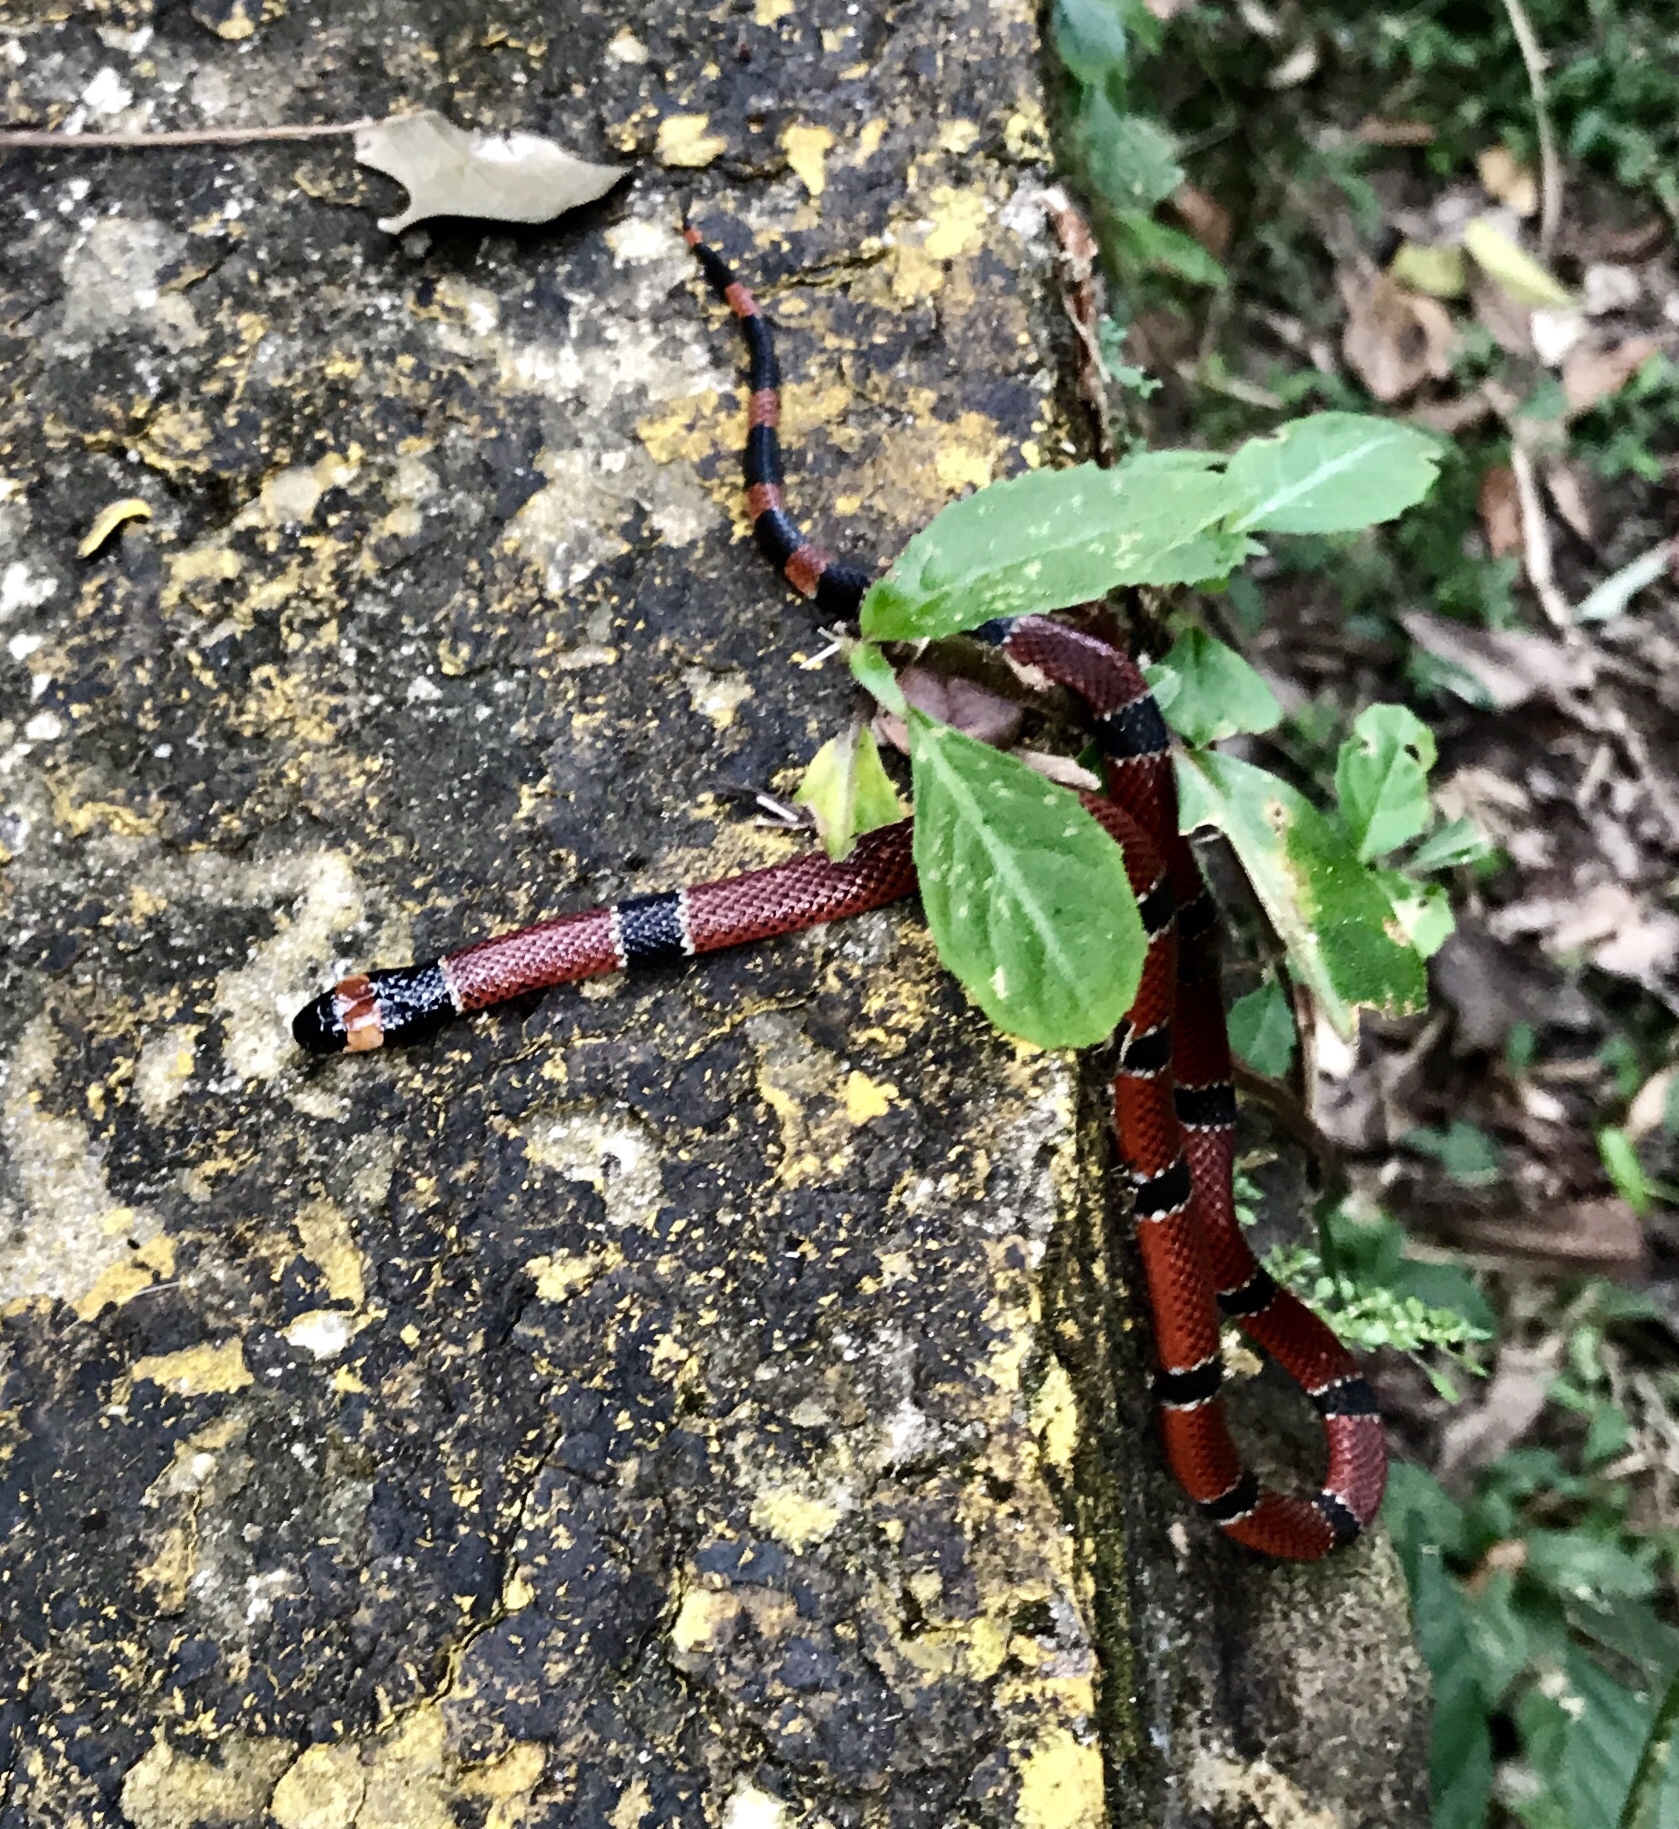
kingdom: Animalia
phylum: Chordata
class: Squamata
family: Elapidae
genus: Micrurus
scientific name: Micrurus nigrocinctus
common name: Babaspul [babaspul]
